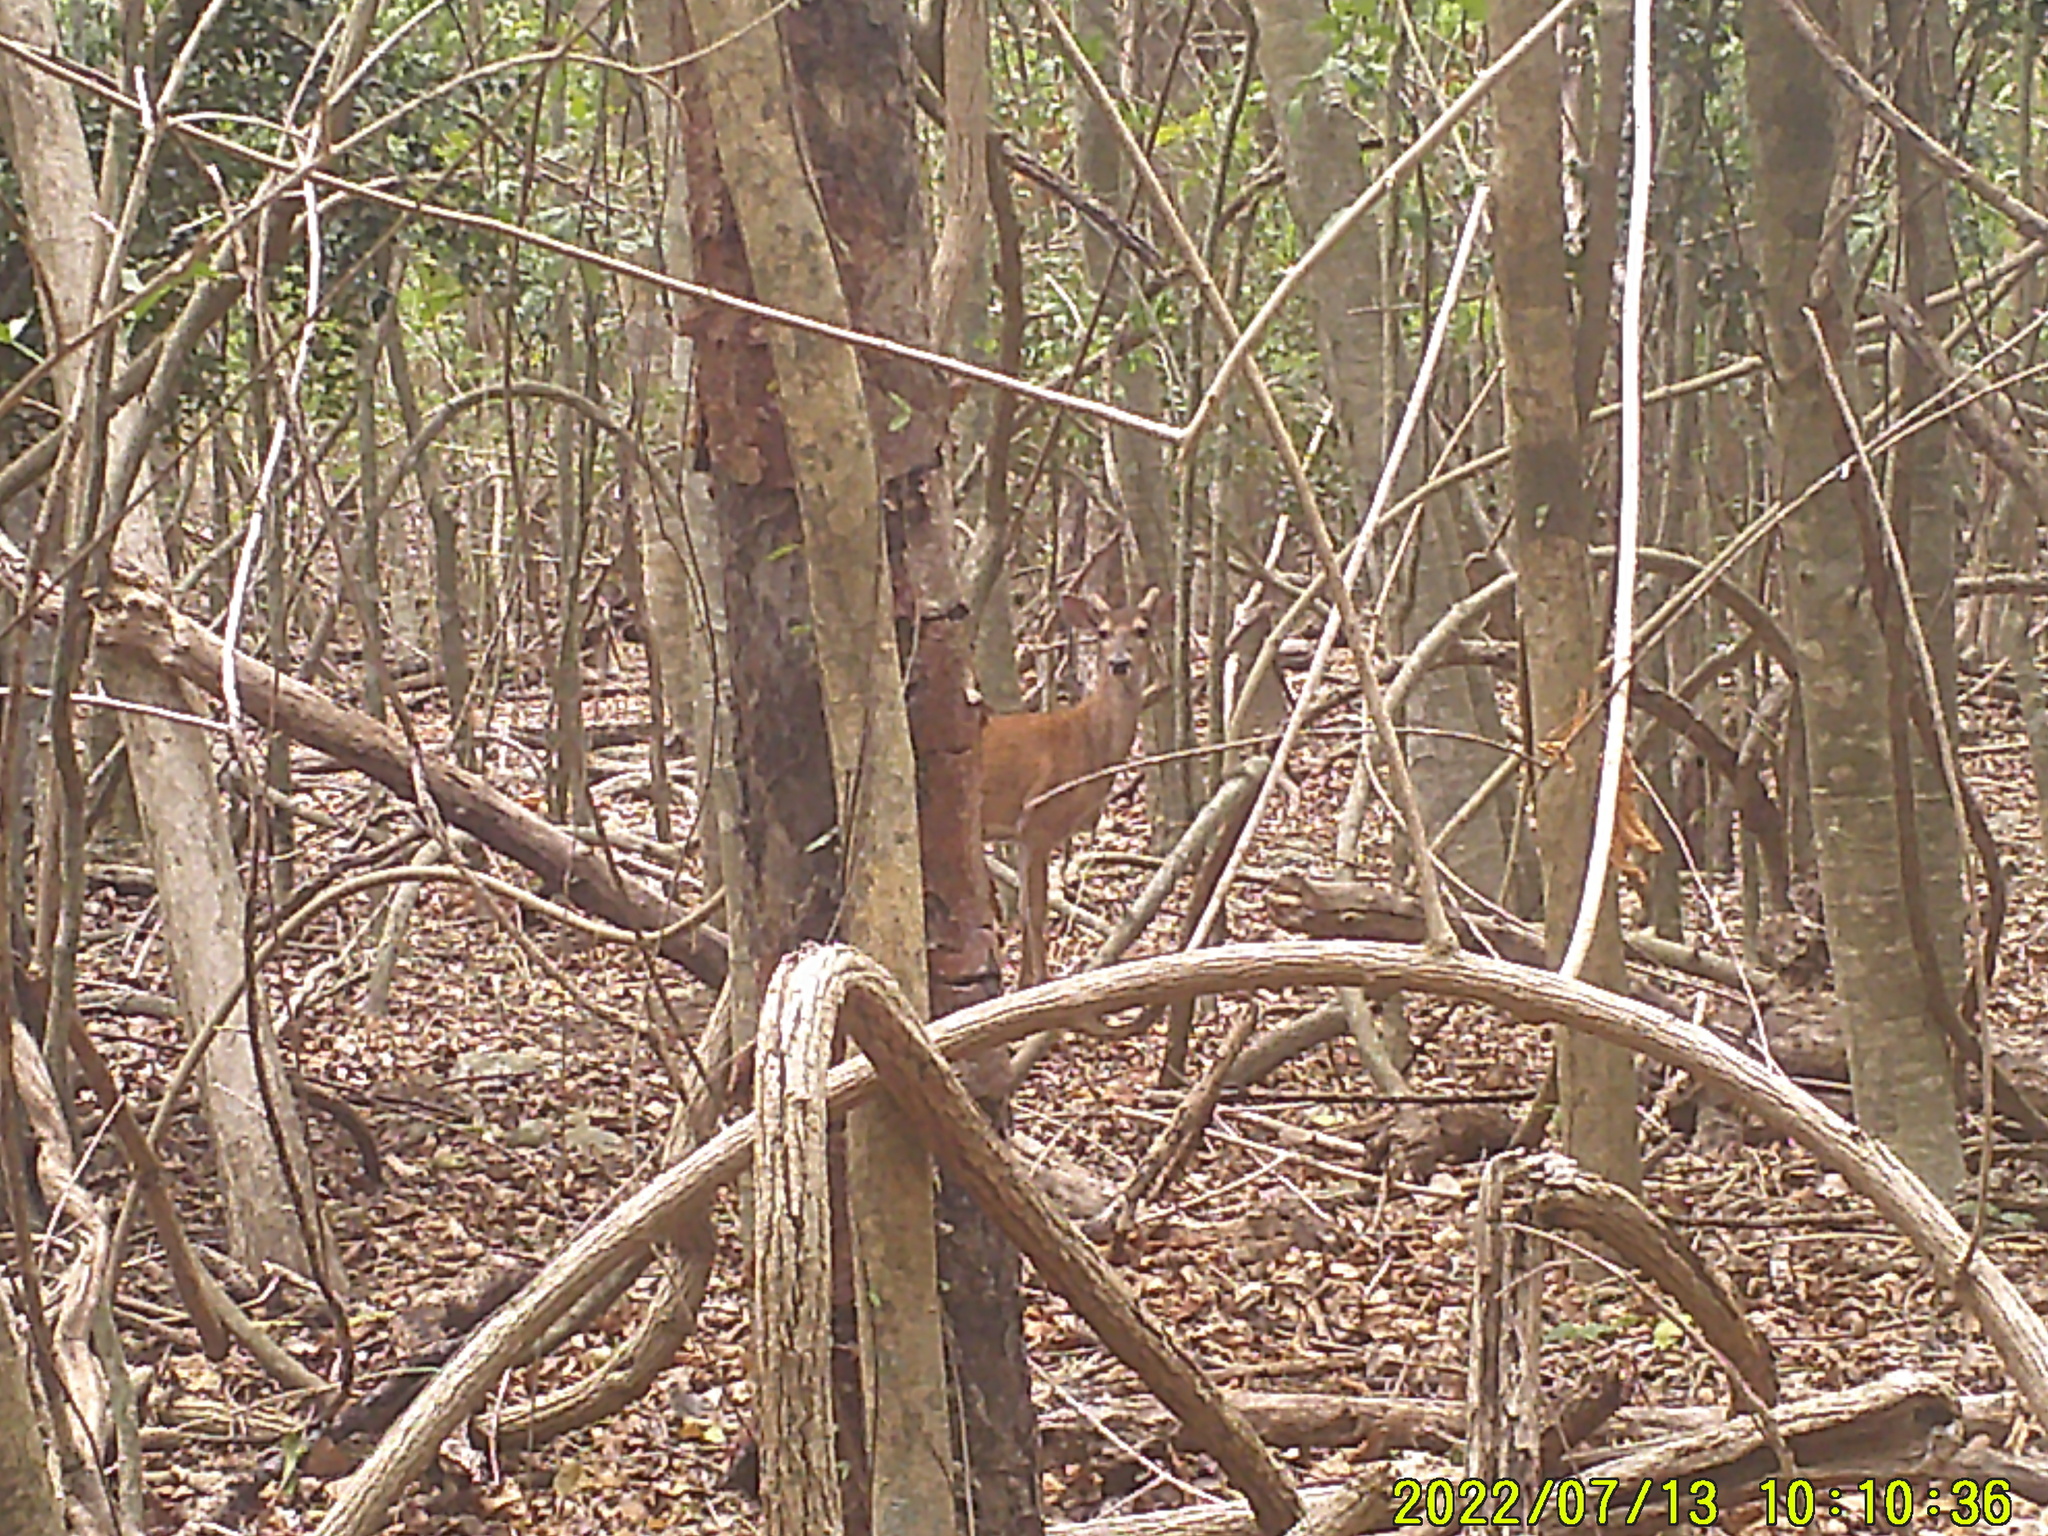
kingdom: Animalia
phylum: Chordata
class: Mammalia
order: Artiodactyla
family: Cervidae
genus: Odocoileus
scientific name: Odocoileus virginianus
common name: White-tailed deer
